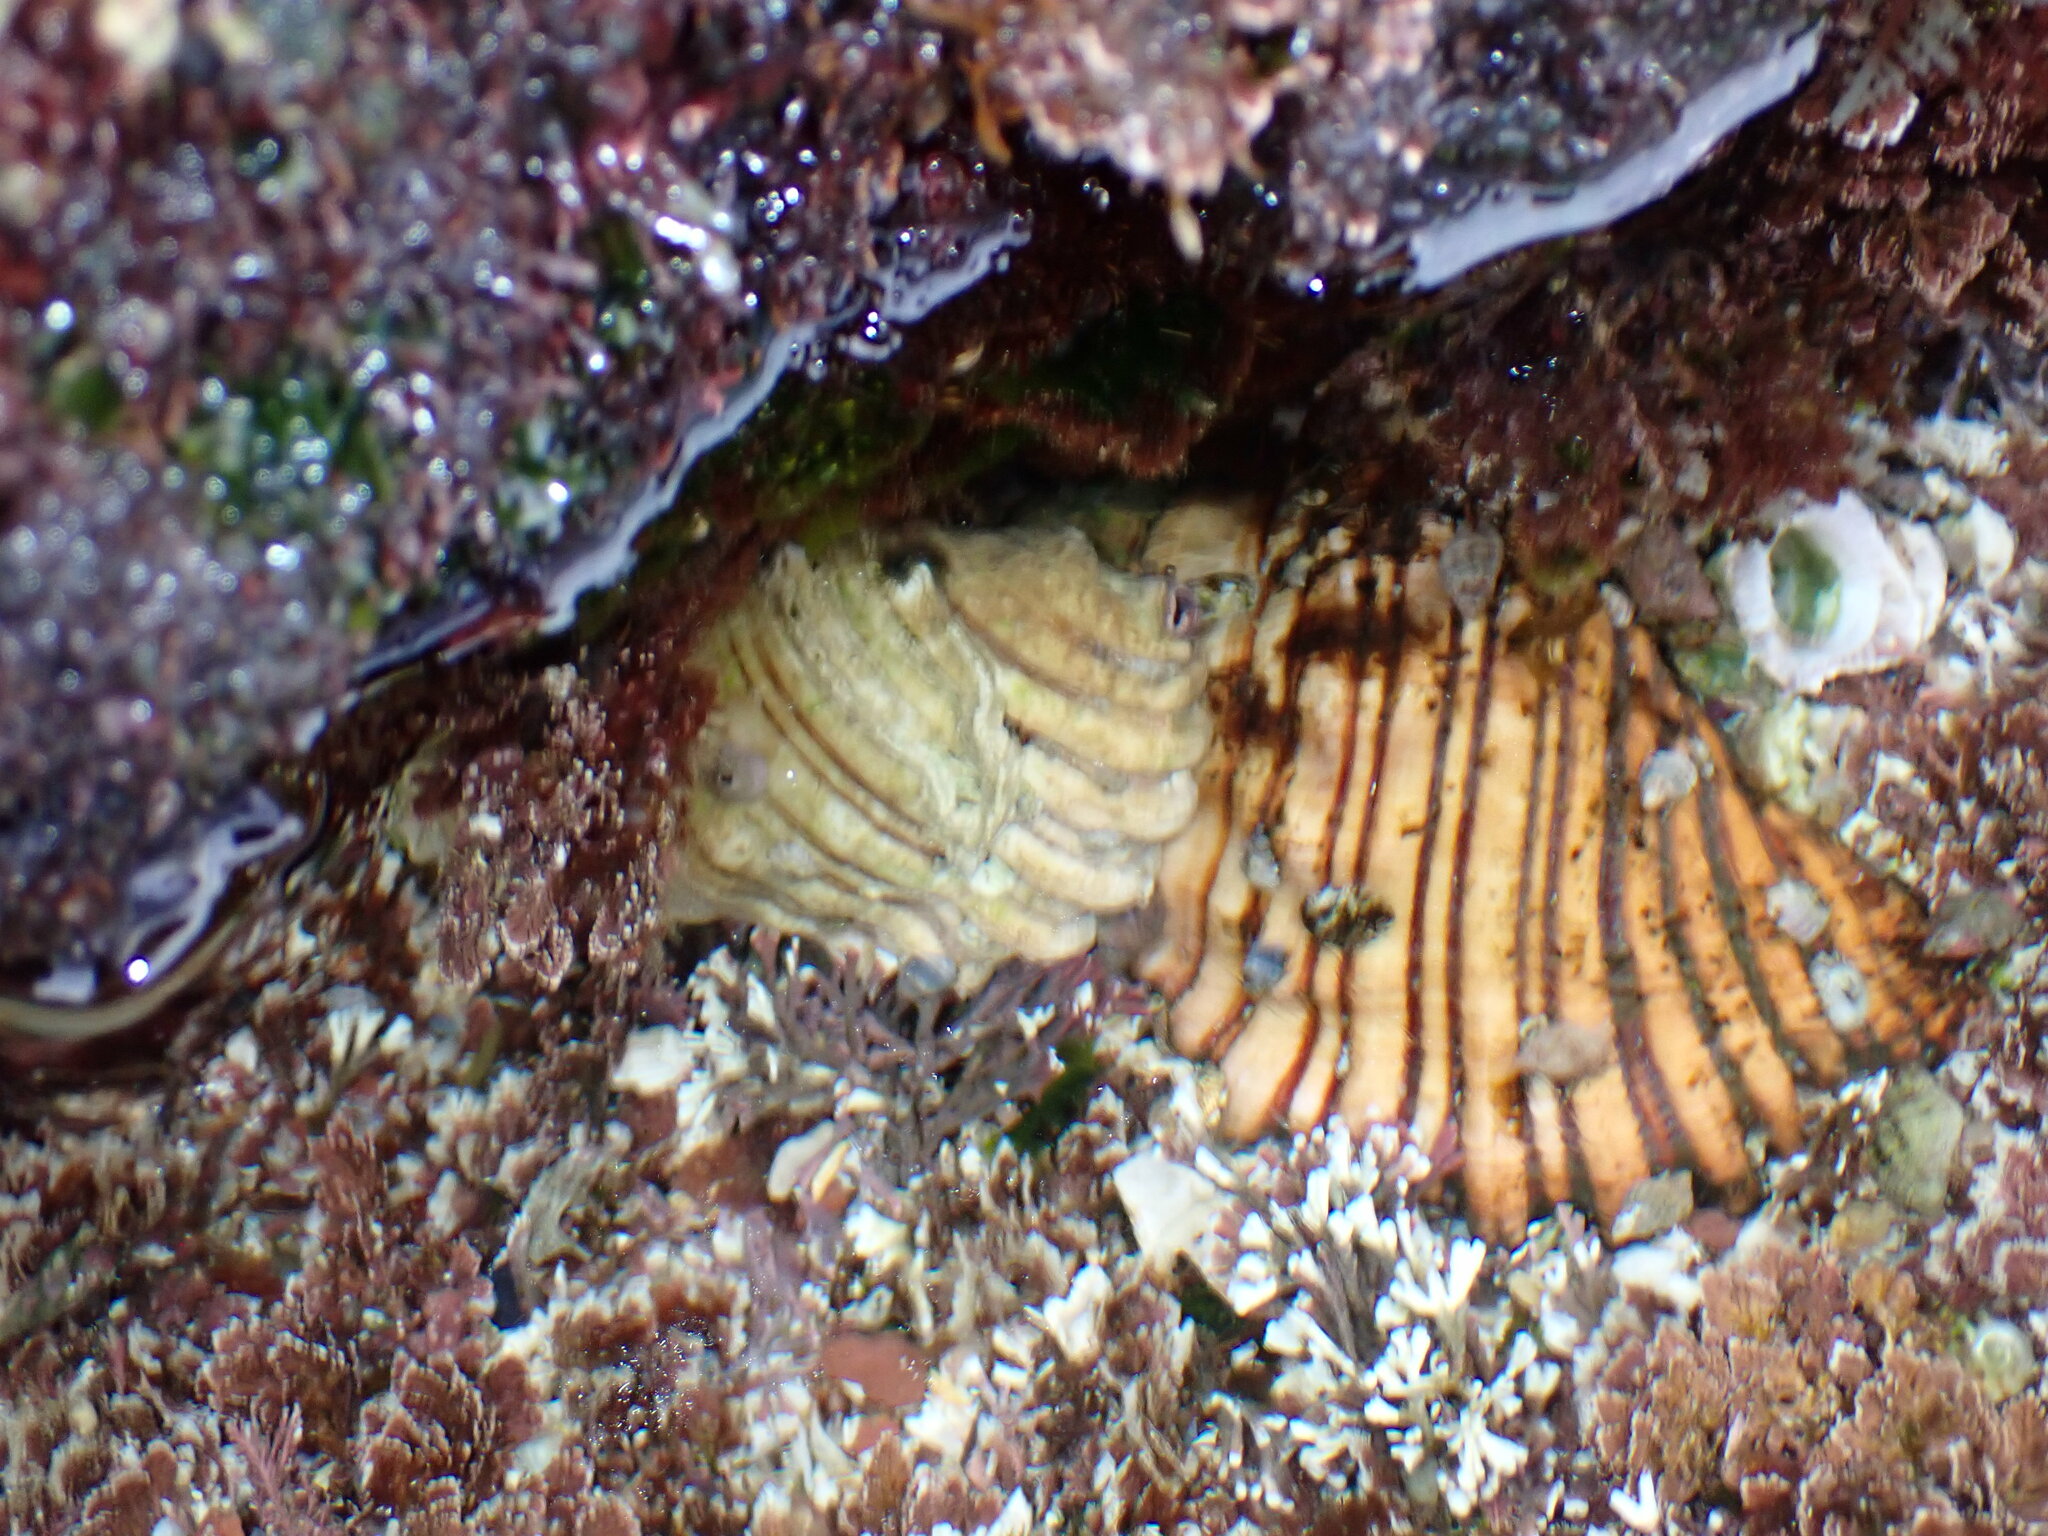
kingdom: Animalia
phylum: Mollusca
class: Gastropoda
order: Littorinimorpha
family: Cymatiidae
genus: Cabestana
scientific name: Cabestana spengleri
